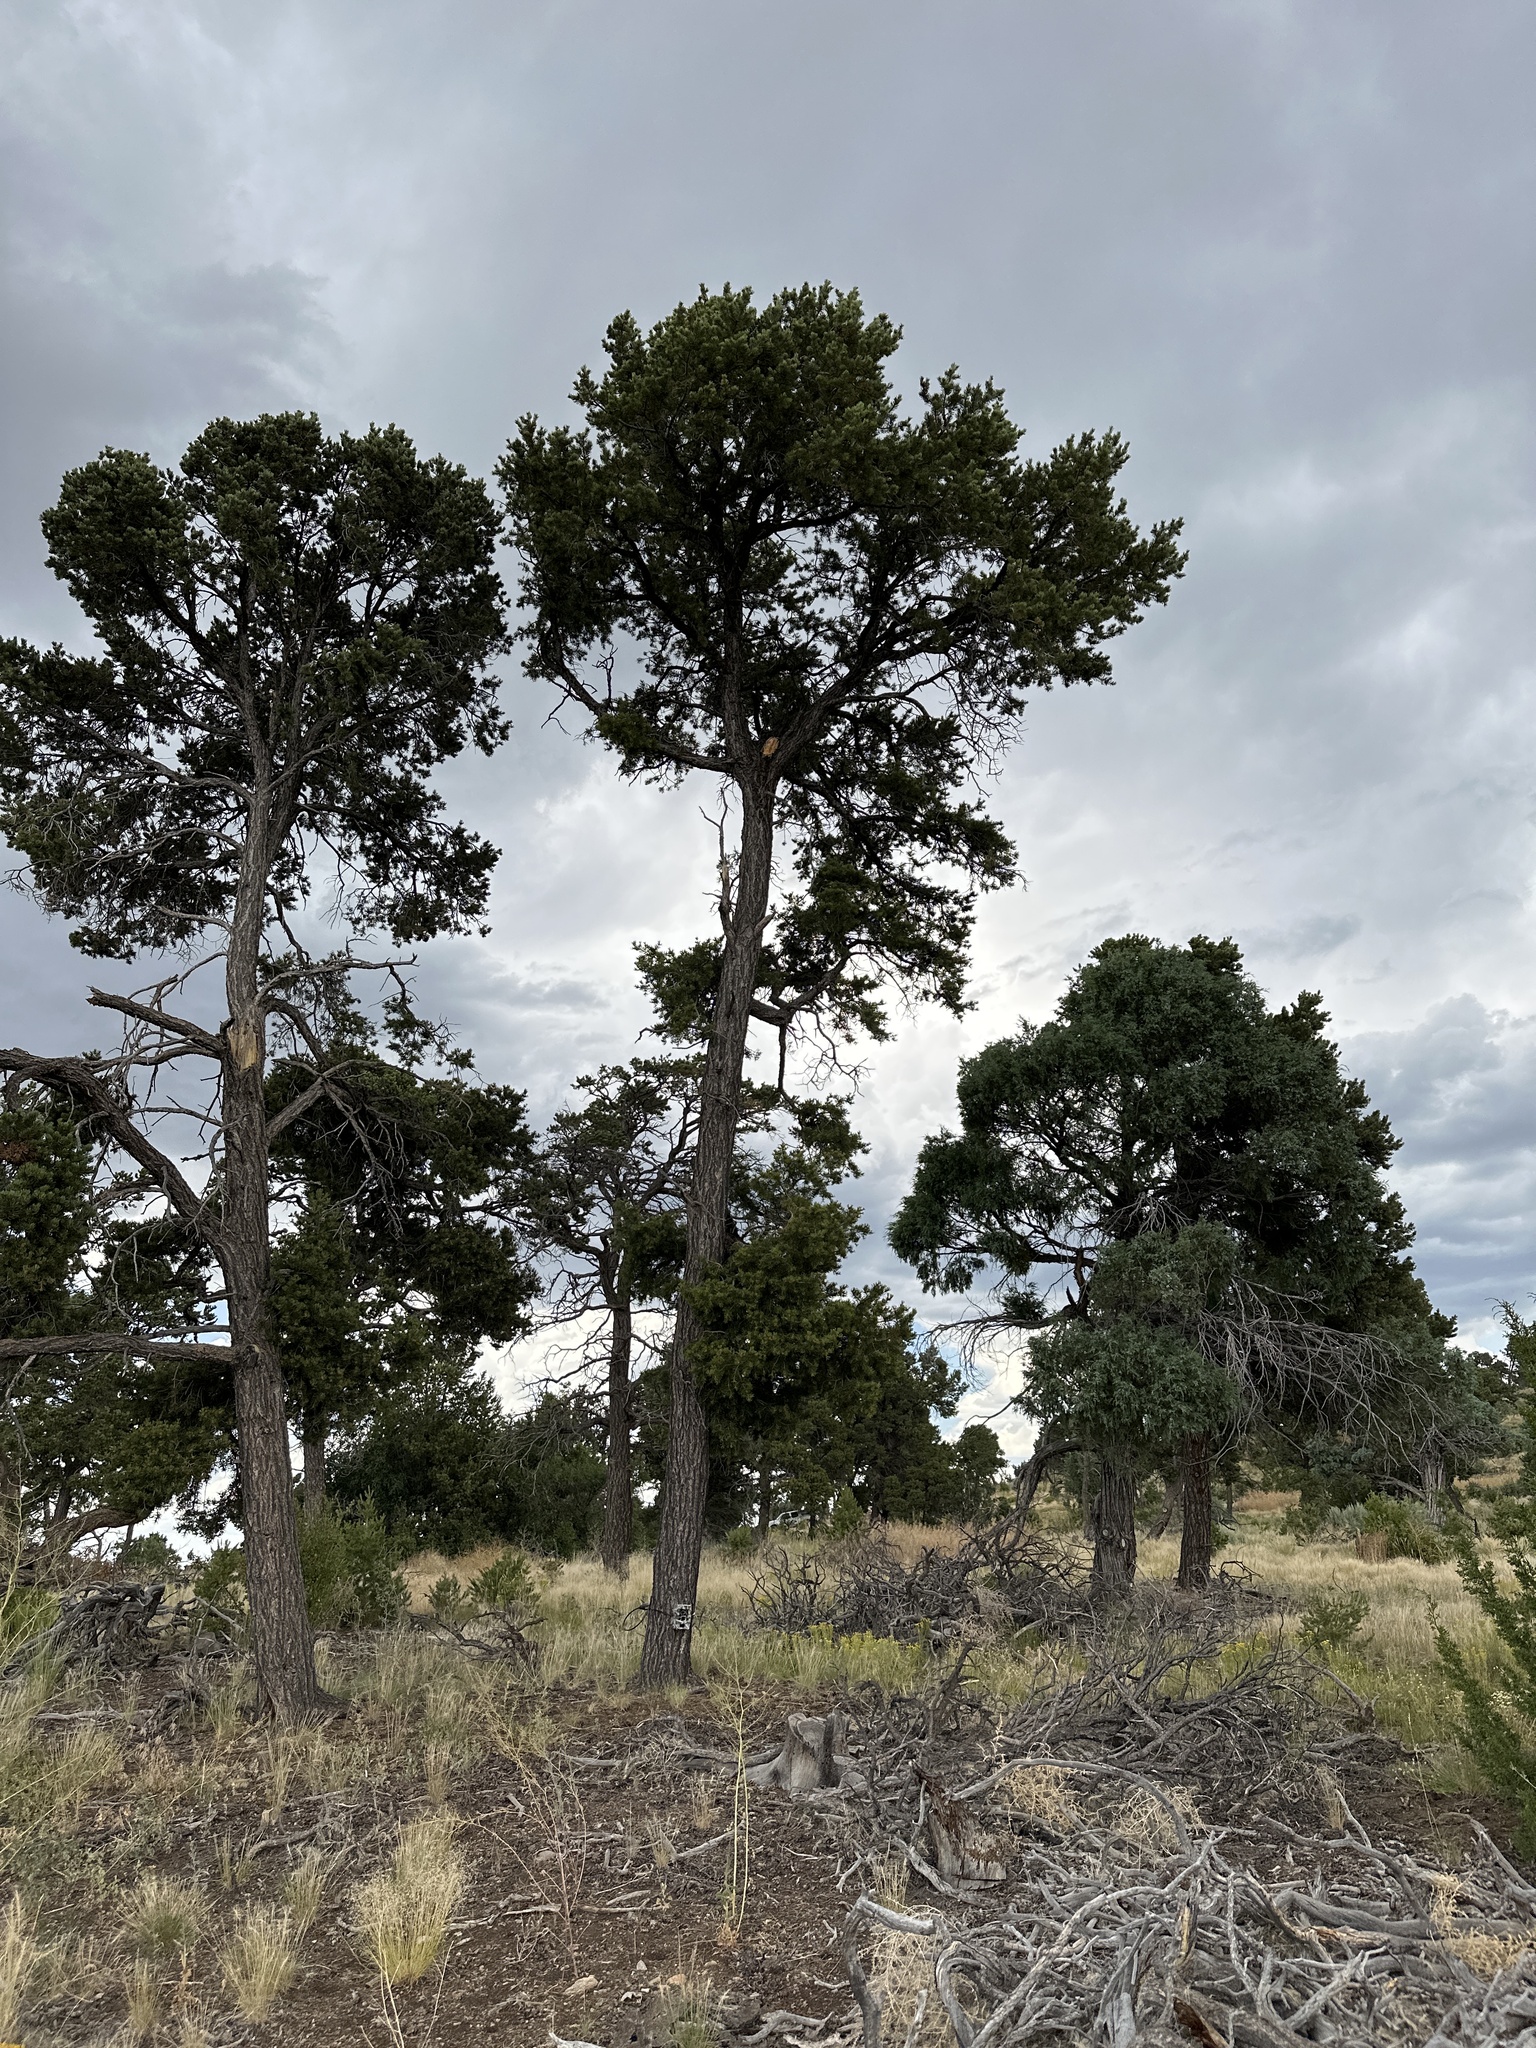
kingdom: Plantae
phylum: Tracheophyta
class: Pinopsida
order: Pinales
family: Pinaceae
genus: Pinus
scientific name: Pinus edulis
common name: Colorado pinyon
